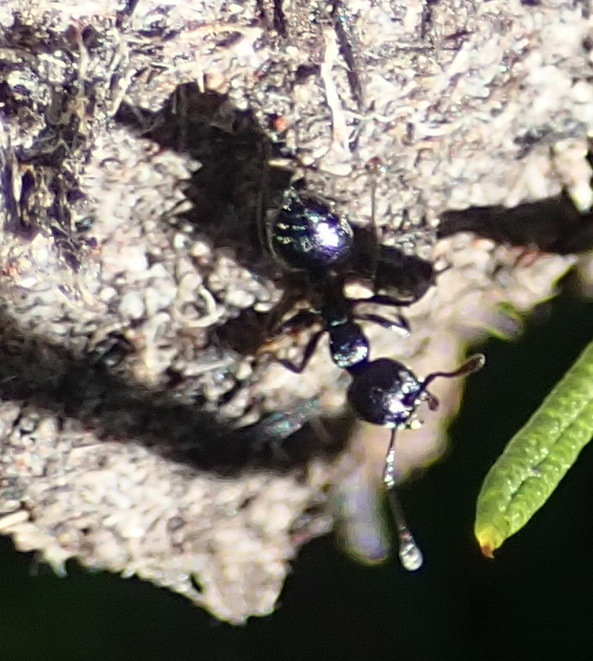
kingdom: Animalia
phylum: Arthropoda
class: Insecta
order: Hymenoptera
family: Formicidae
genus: Crematogaster
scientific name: Crematogaster peringueyi
